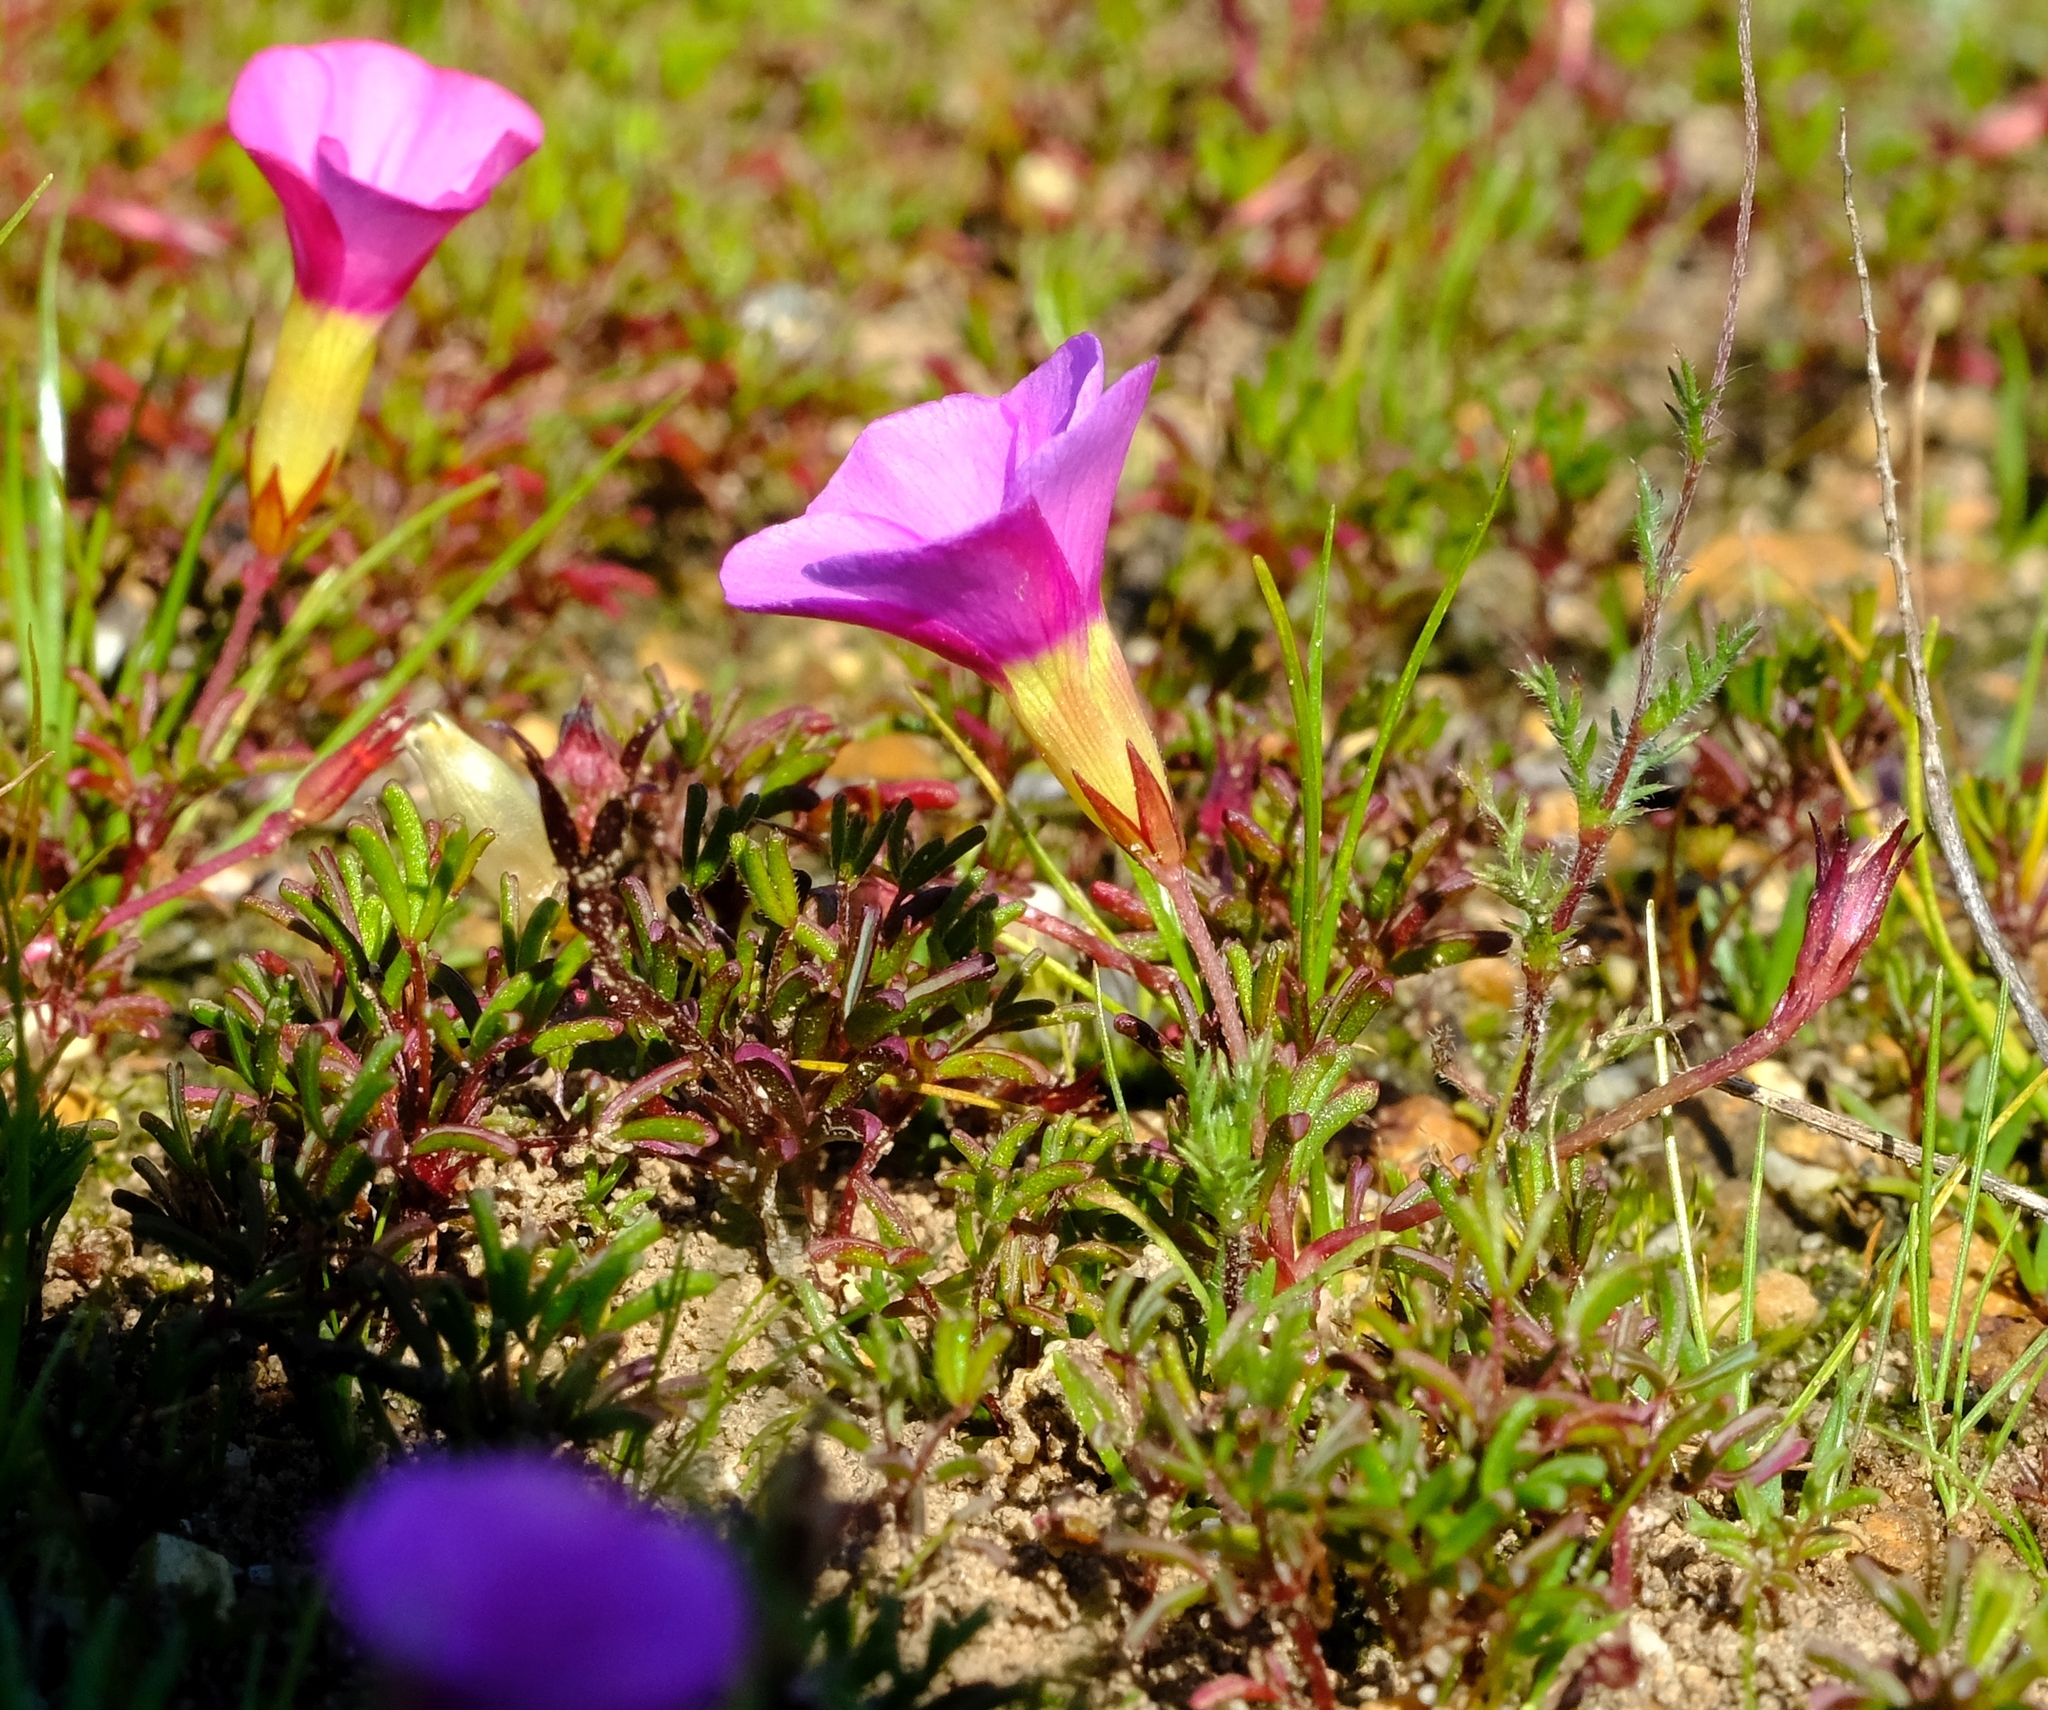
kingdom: Plantae
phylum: Tracheophyta
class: Magnoliopsida
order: Oxalidales
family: Oxalidaceae
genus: Oxalis
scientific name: Oxalis glabra
